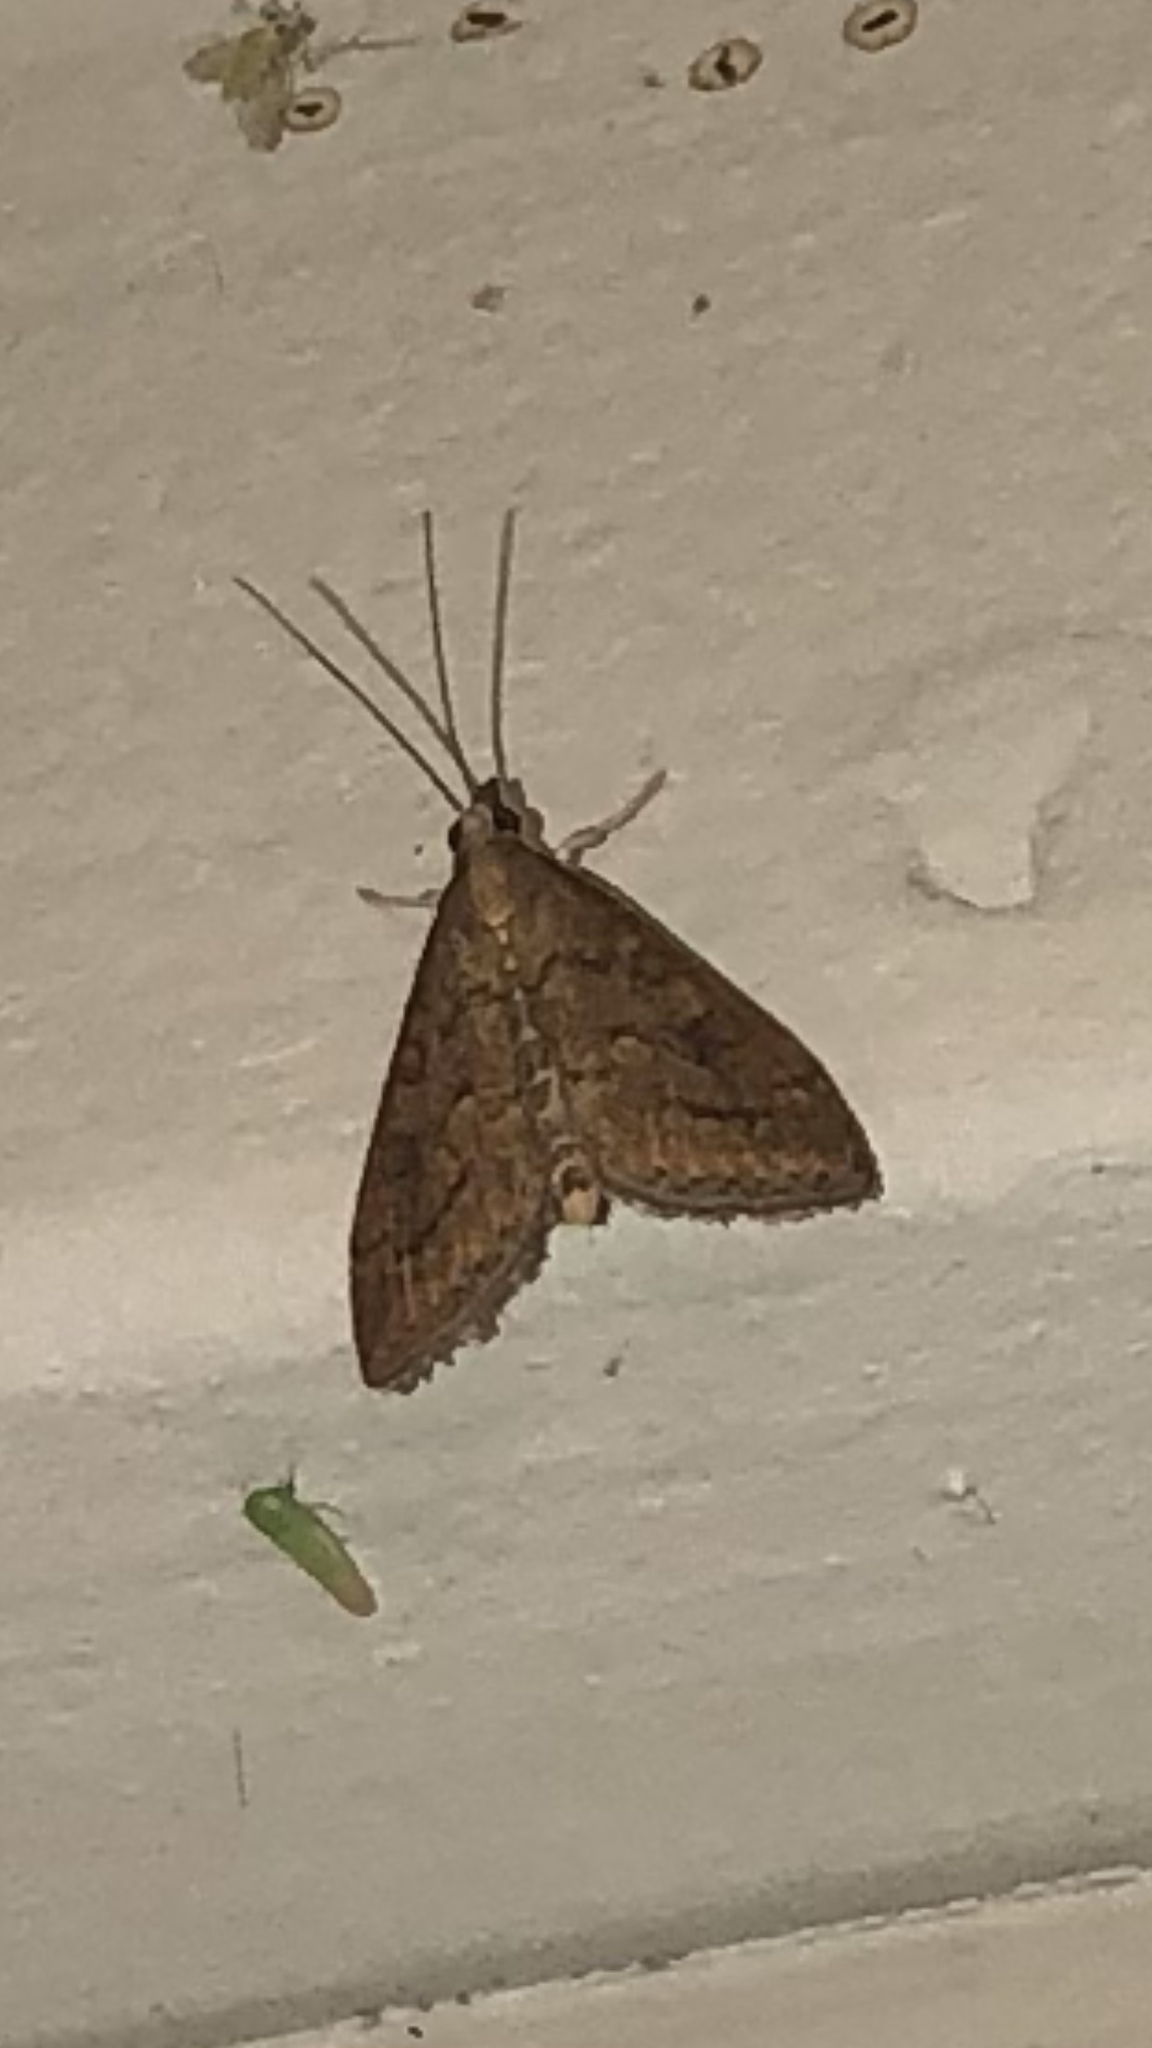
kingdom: Animalia
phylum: Arthropoda
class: Insecta
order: Lepidoptera
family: Crambidae
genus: Udea
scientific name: Udea rubigalis
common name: Celery leaftier moth
